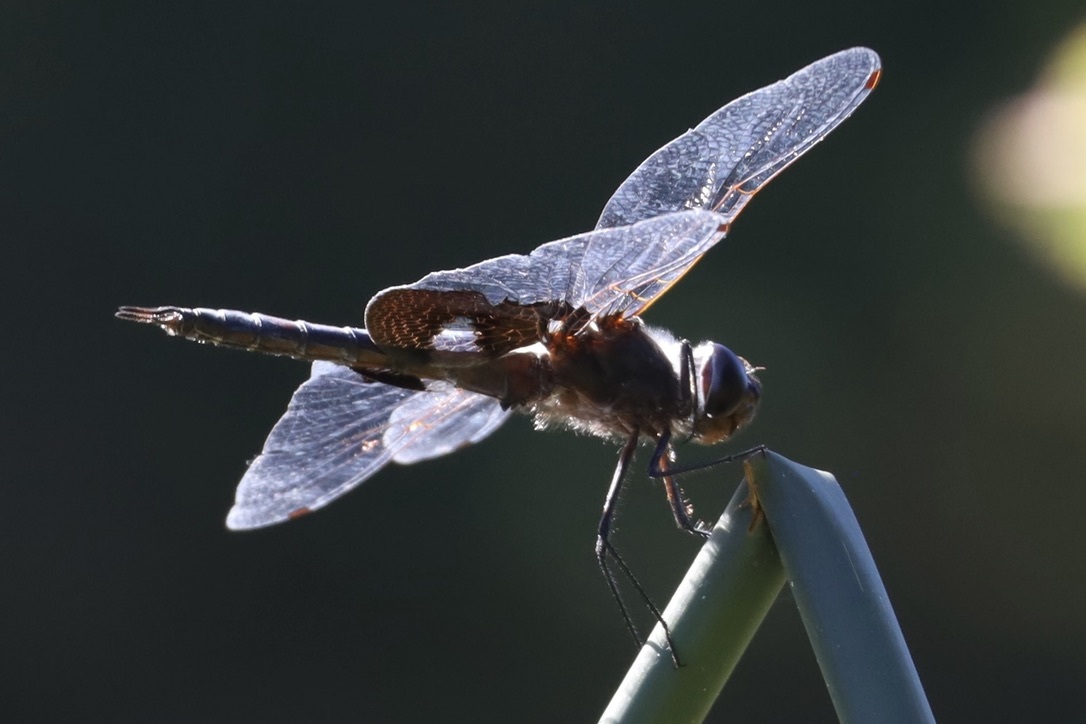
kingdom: Animalia
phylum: Arthropoda
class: Insecta
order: Odonata
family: Libellulidae
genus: Tramea
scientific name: Tramea lacerata
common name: Black saddlebags
